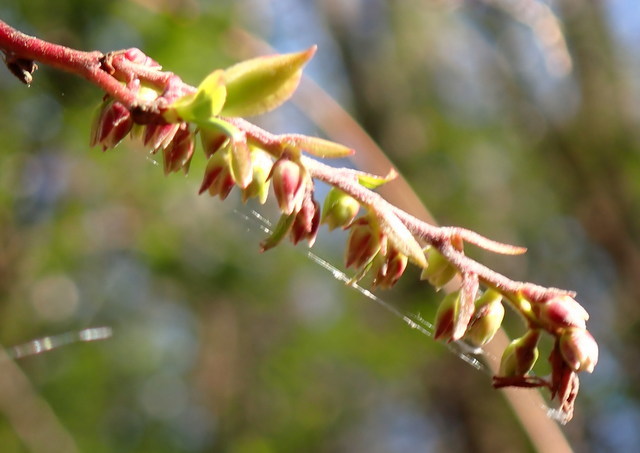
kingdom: Plantae
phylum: Tracheophyta
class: Magnoliopsida
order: Ericales
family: Ericaceae
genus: Eubotrys
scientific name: Eubotrys racemosa
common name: Fetterbush
